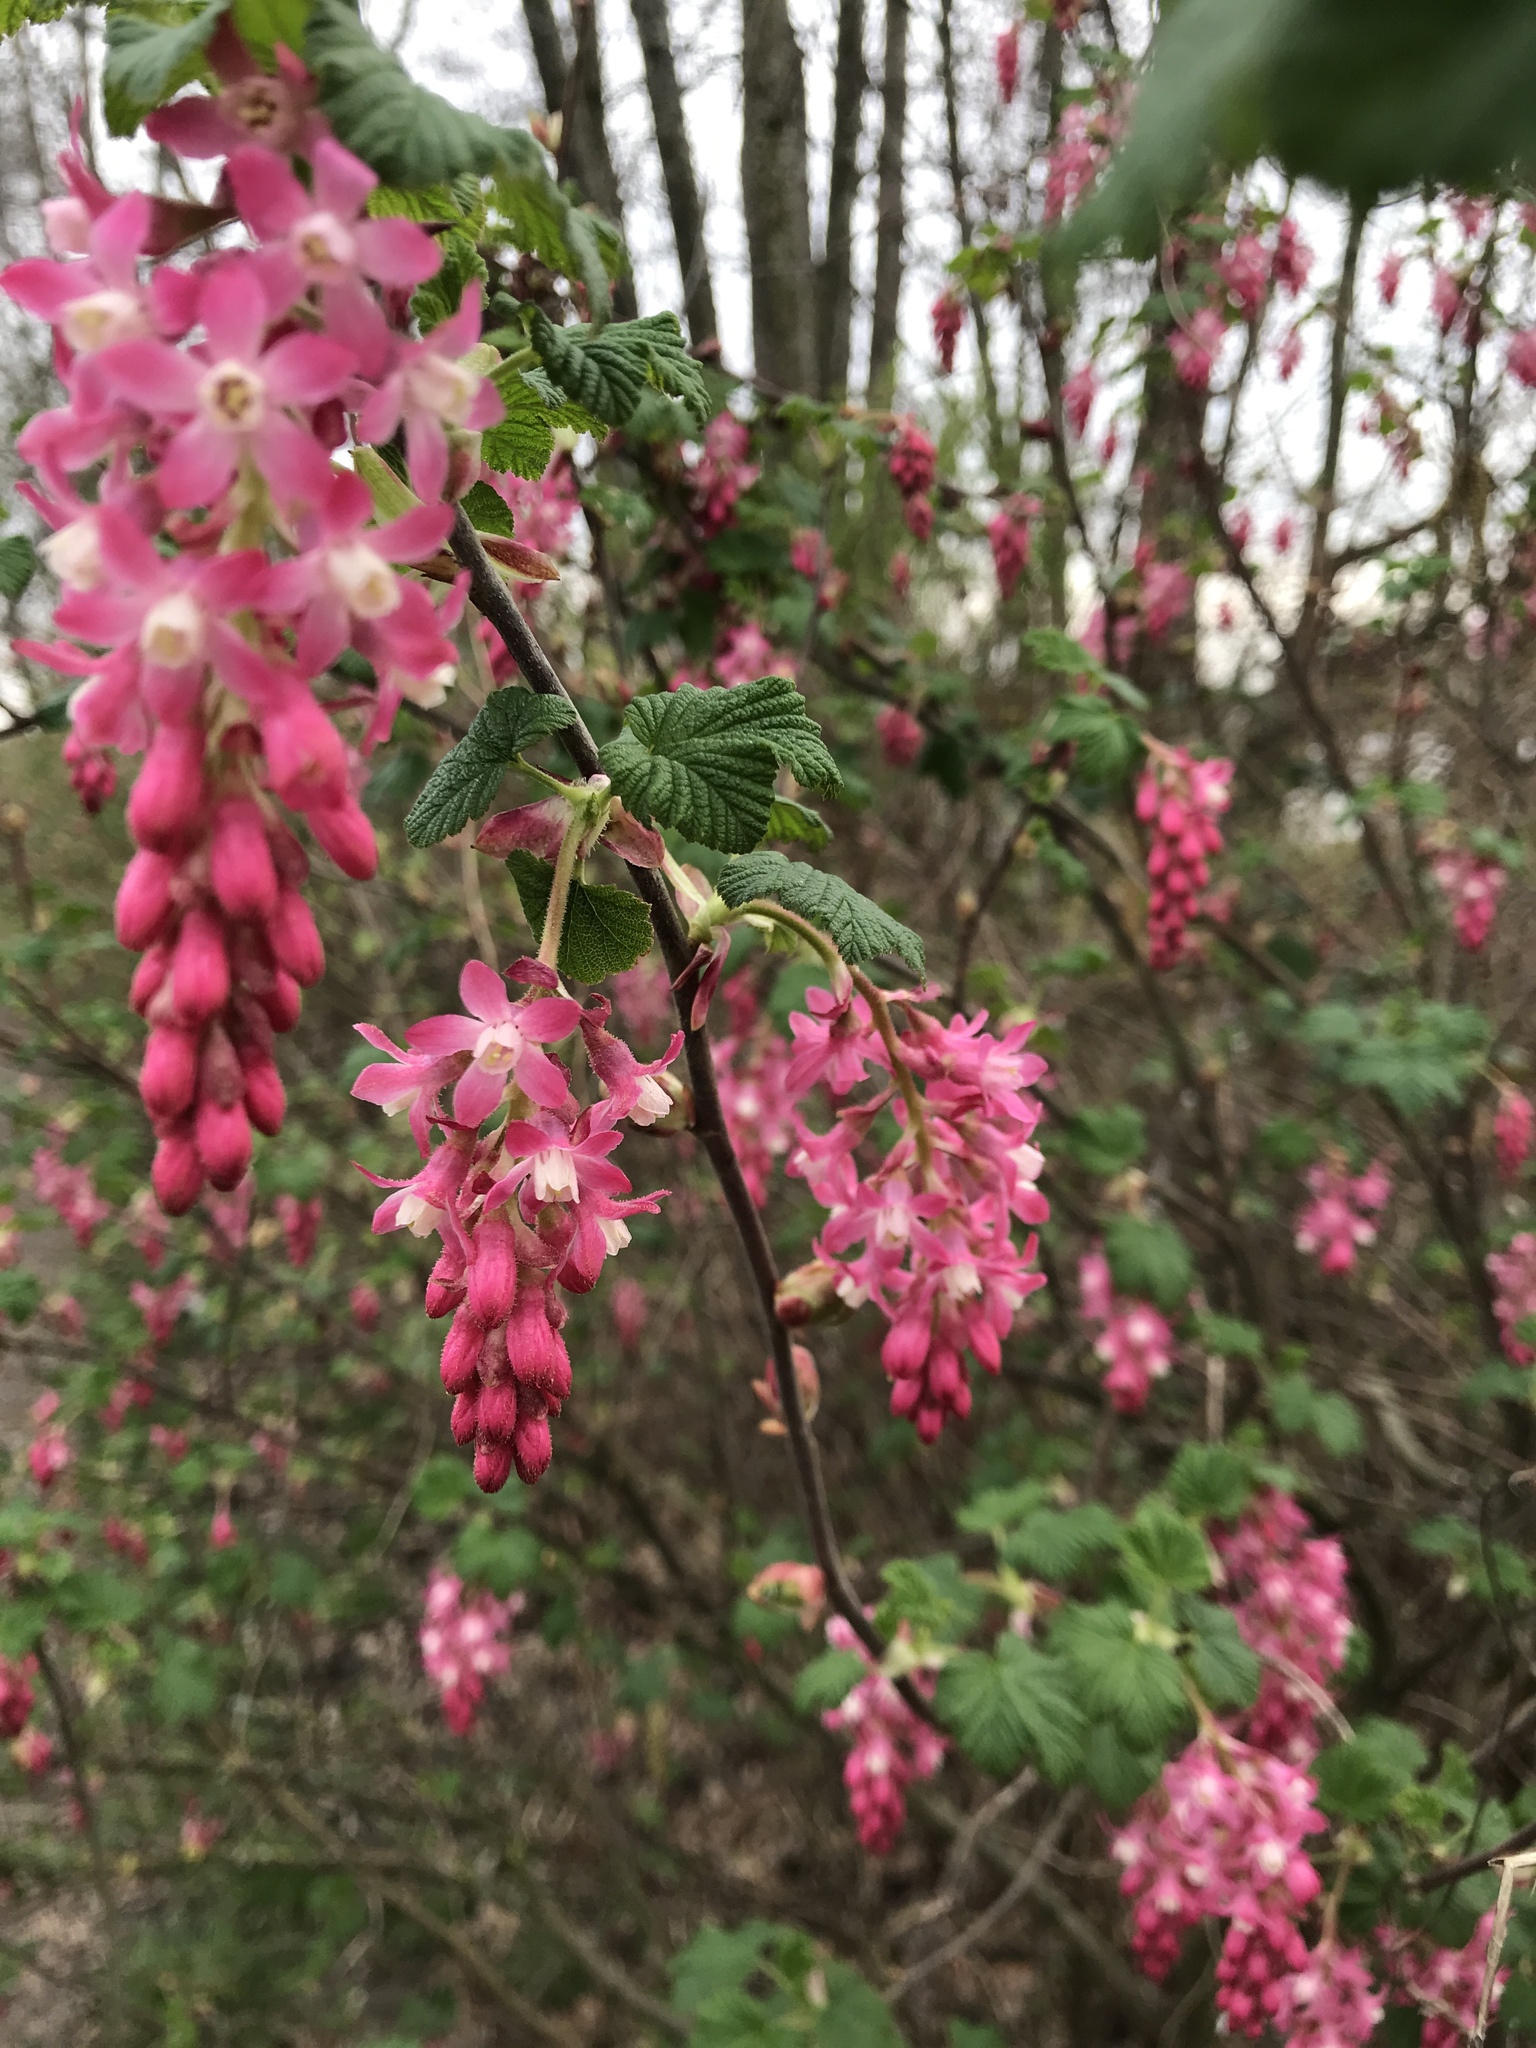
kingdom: Plantae
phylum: Tracheophyta
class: Magnoliopsida
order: Saxifragales
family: Grossulariaceae
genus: Ribes
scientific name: Ribes sanguineum
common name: Flowering currant
